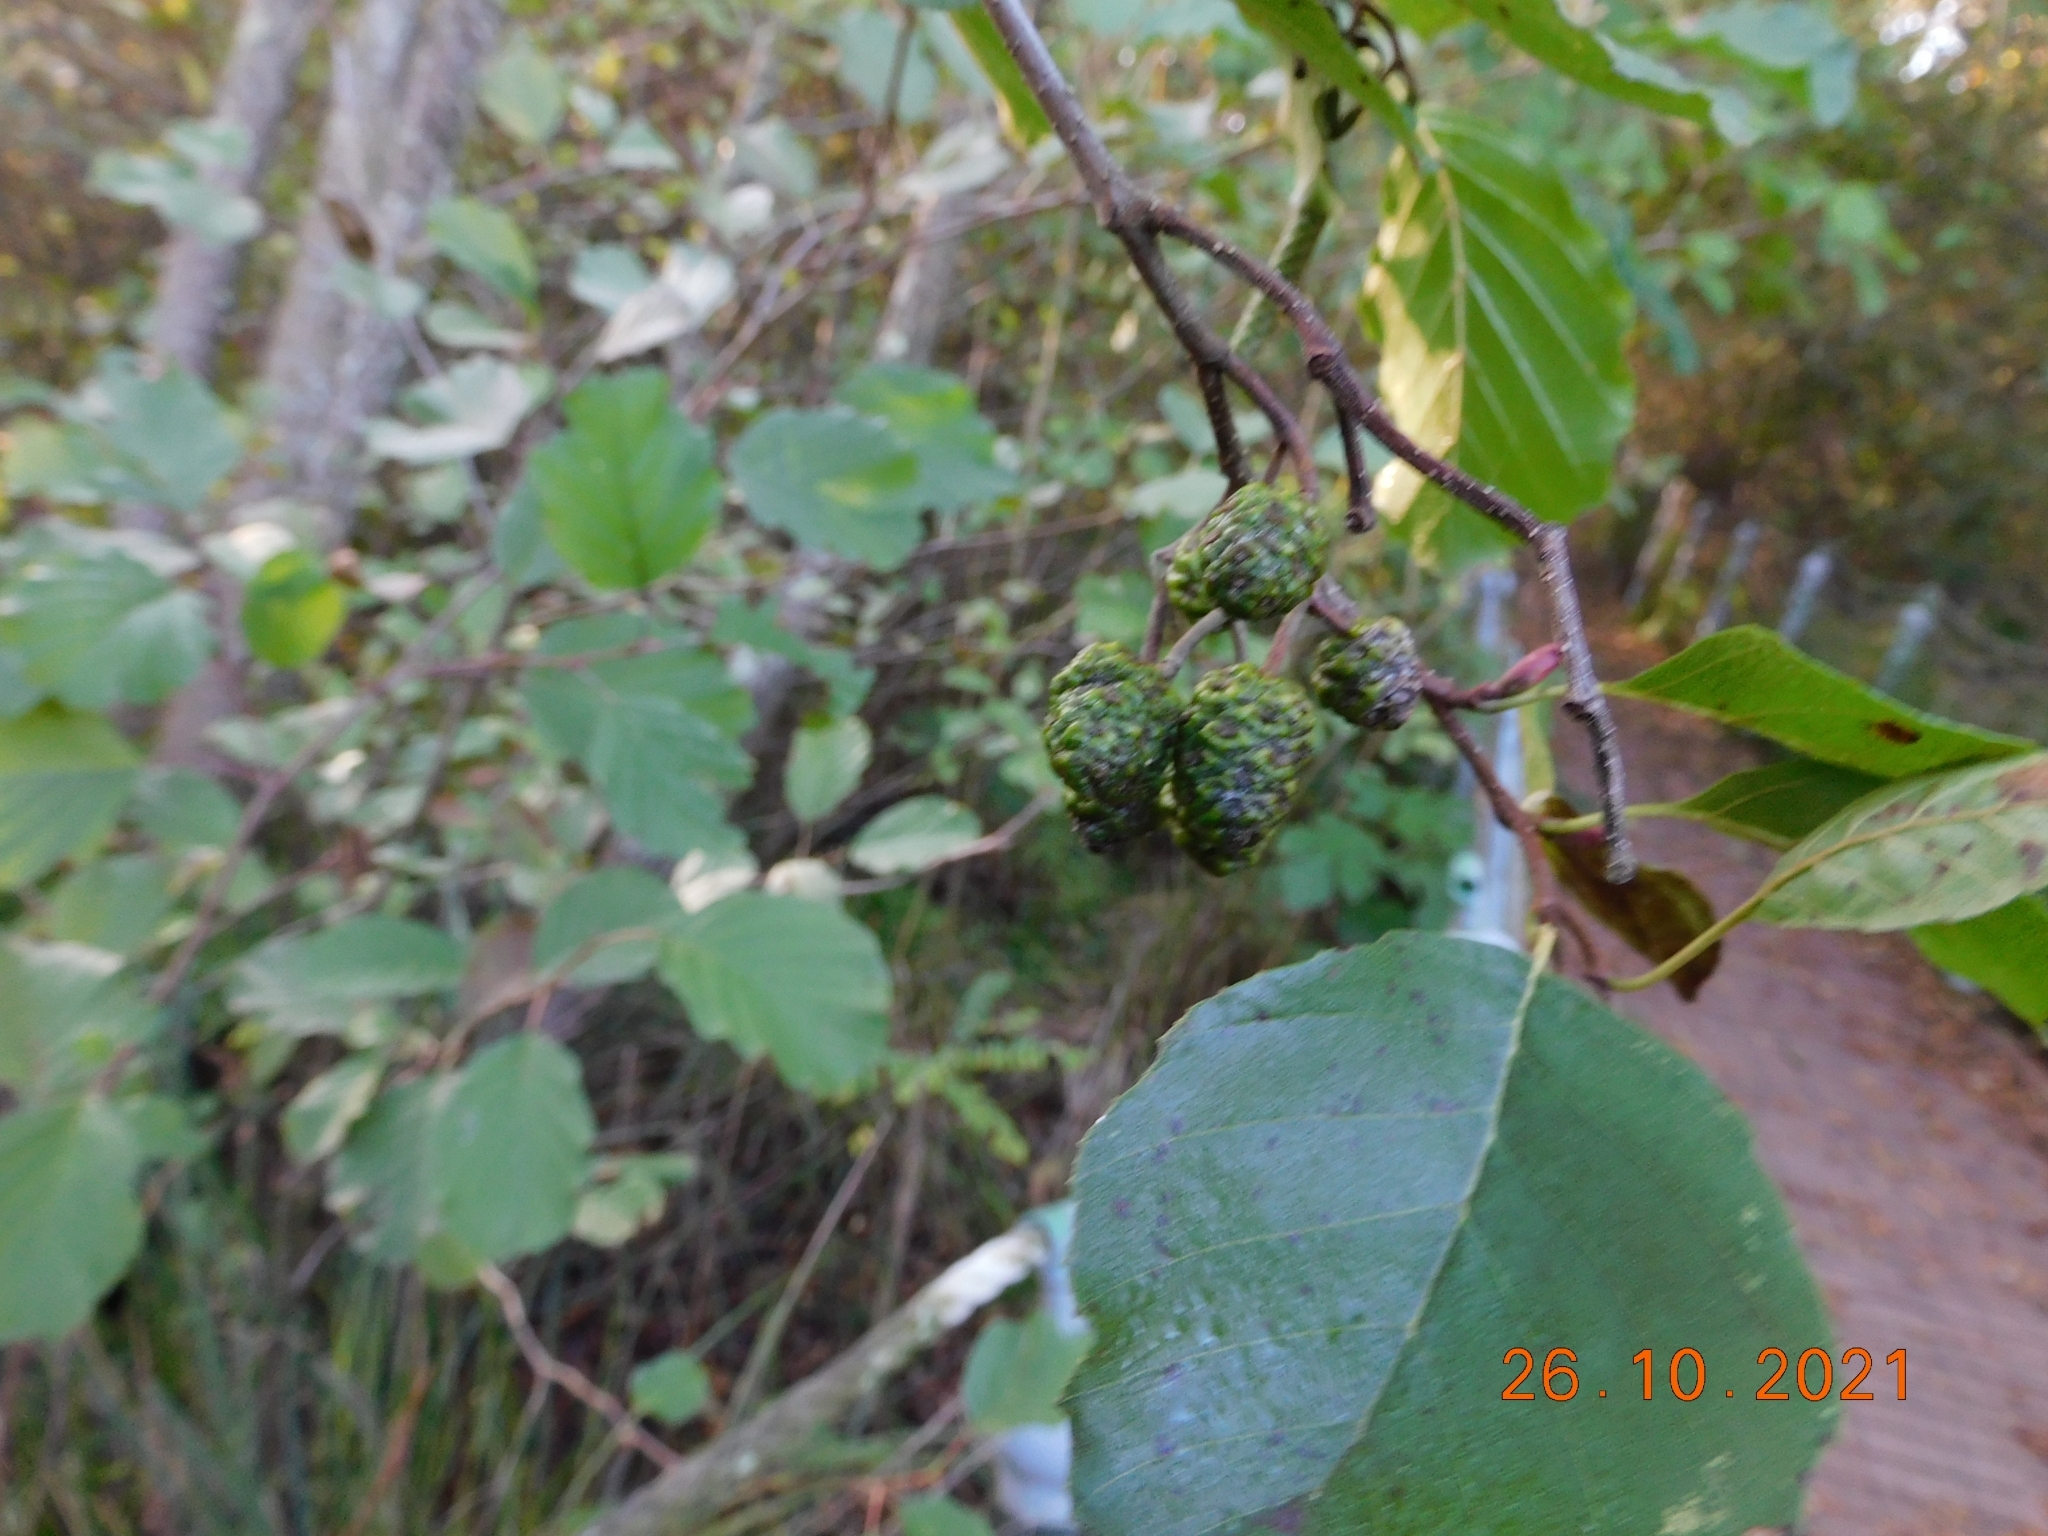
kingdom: Plantae
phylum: Tracheophyta
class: Magnoliopsida
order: Fagales
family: Betulaceae
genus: Alnus
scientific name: Alnus glutinosa
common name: Black alder
